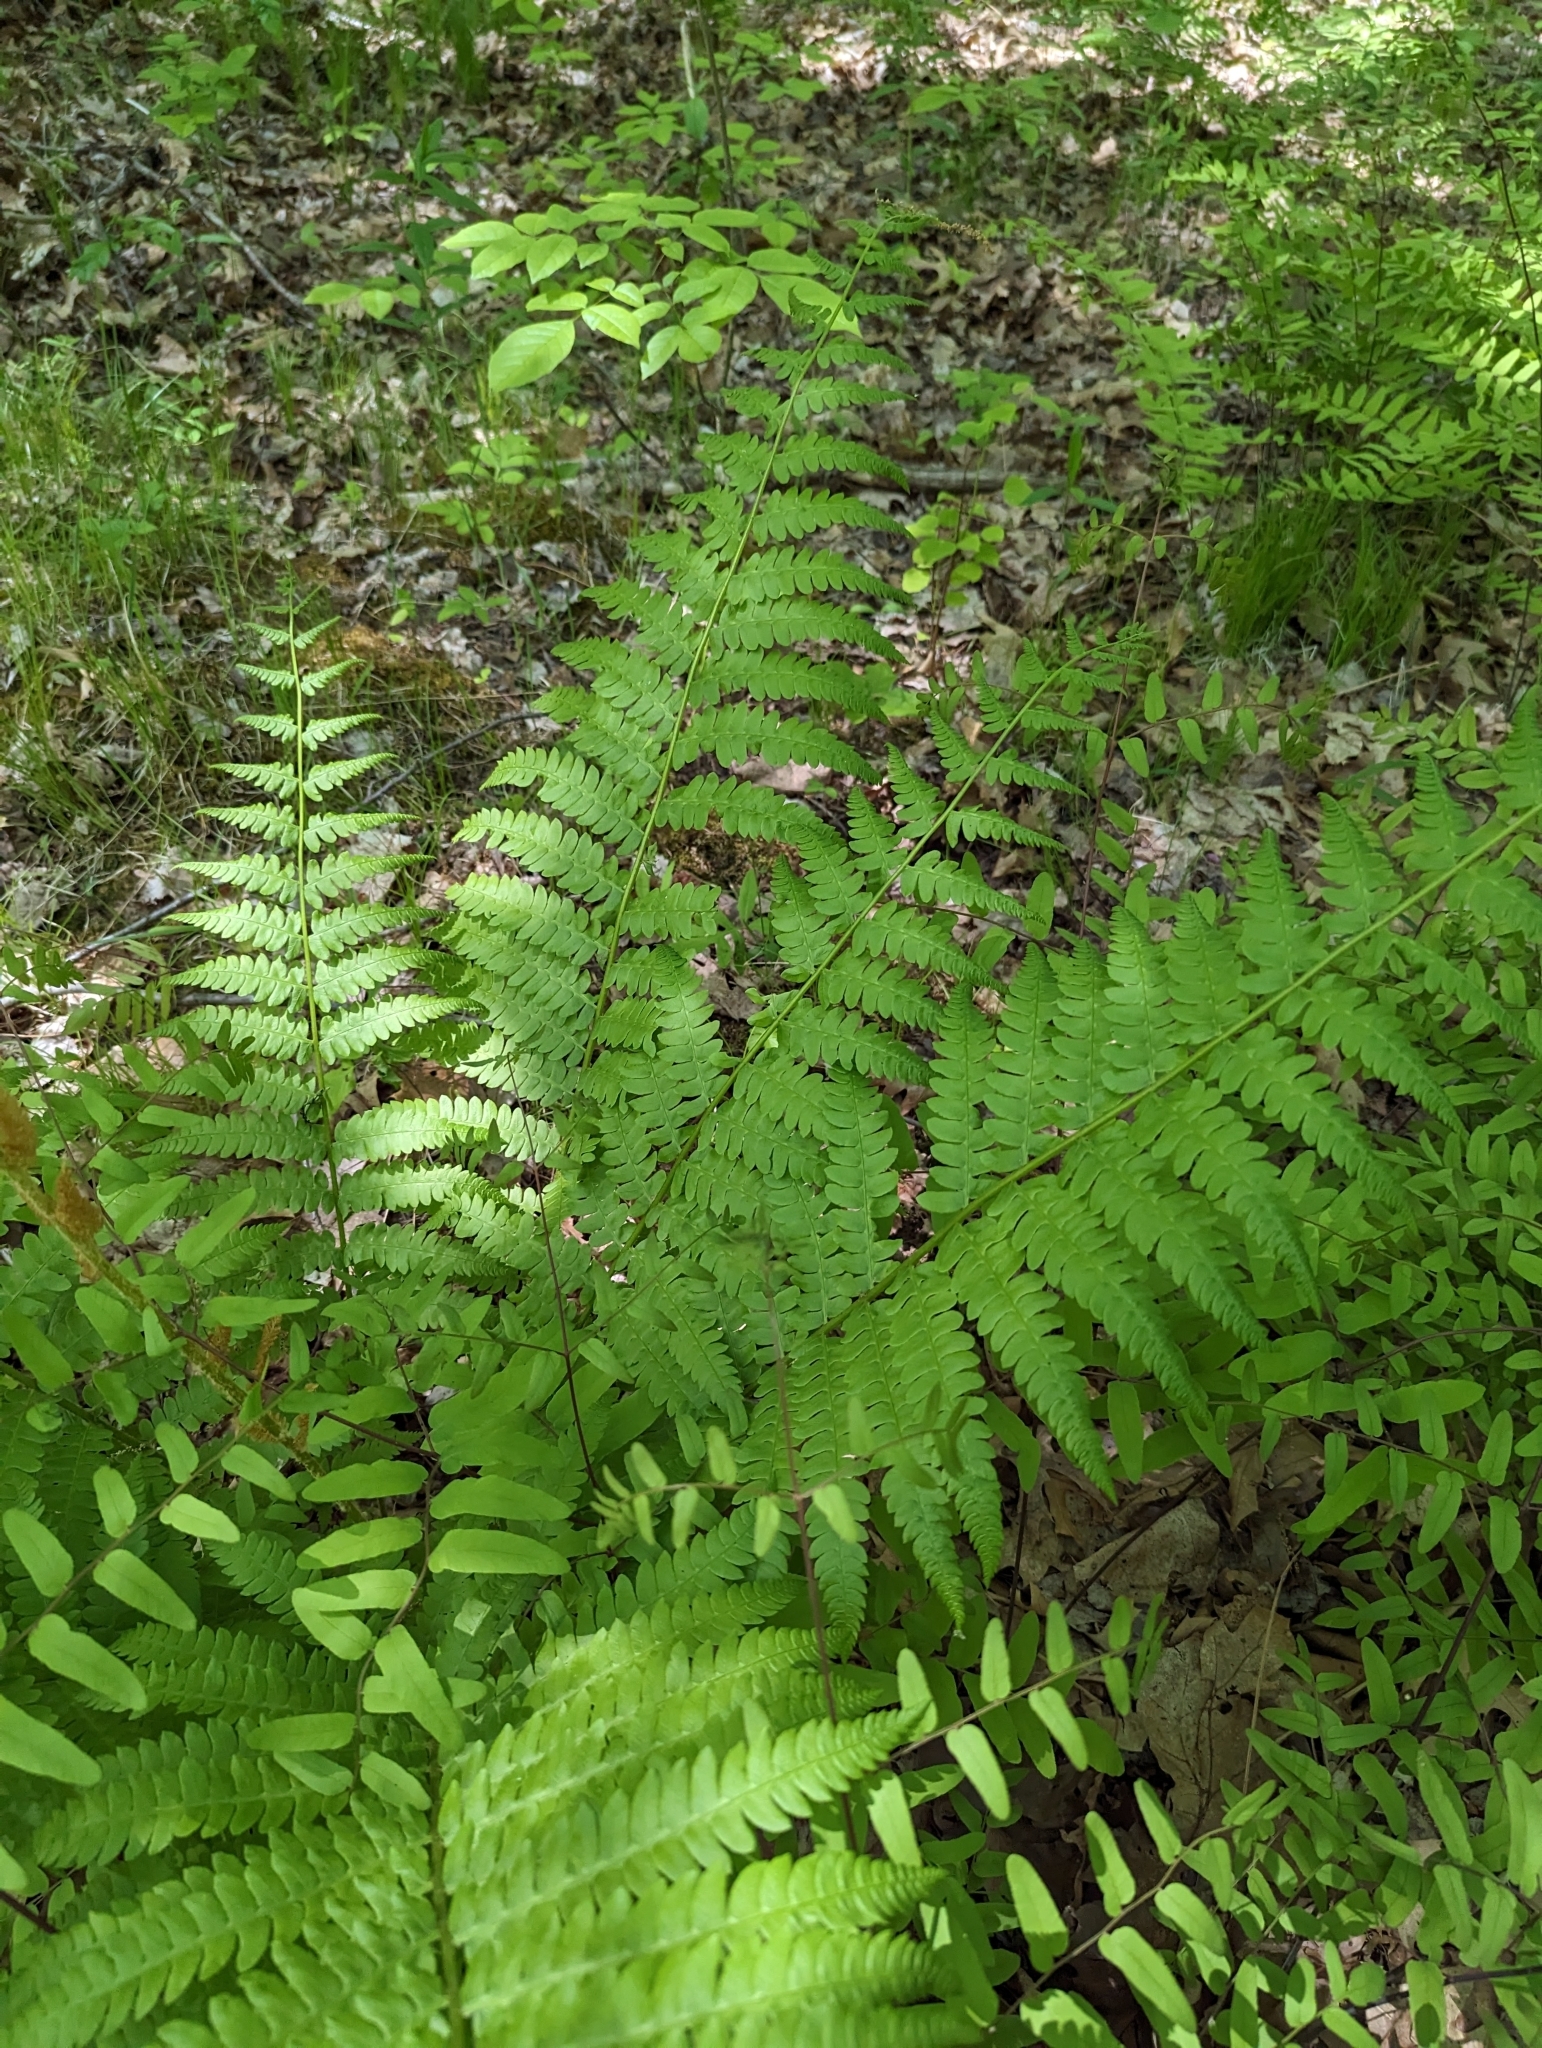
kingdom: Plantae
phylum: Tracheophyta
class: Polypodiopsida
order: Osmundales
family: Osmundaceae
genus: Osmundastrum
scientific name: Osmundastrum cinnamomeum
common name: Cinnamon fern
